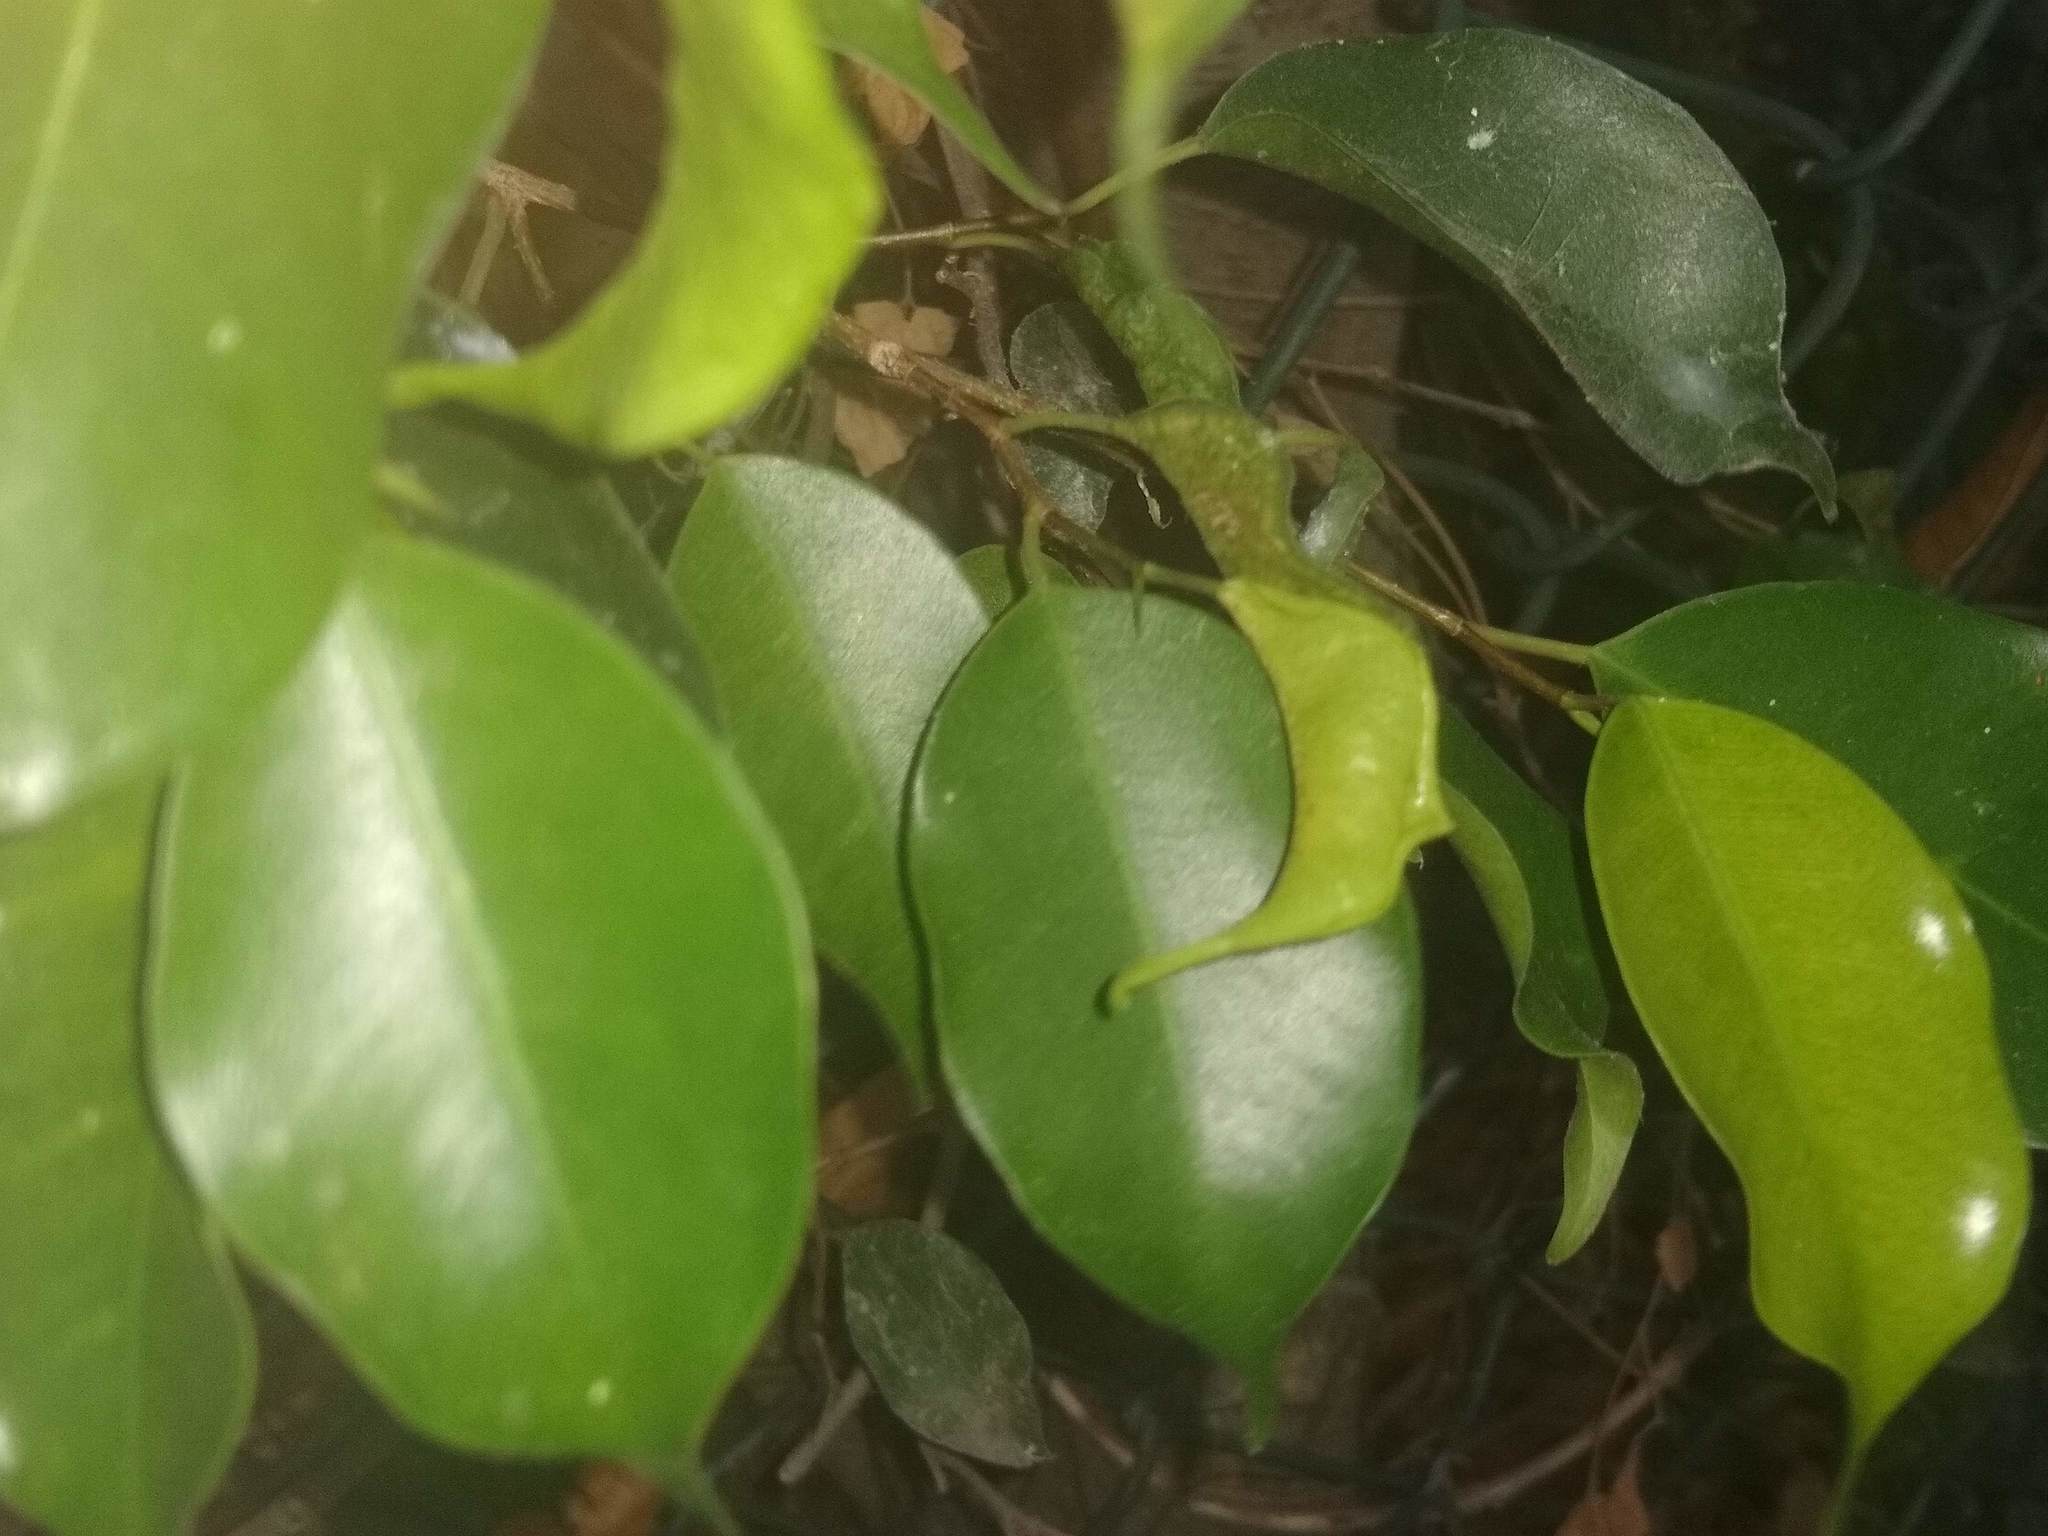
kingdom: Animalia
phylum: Arthropoda
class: Insecta
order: Thysanoptera
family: Phlaeothripidae
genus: Gynaikothrips
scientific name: Gynaikothrips uzeli
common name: Leaf-gall thrips
